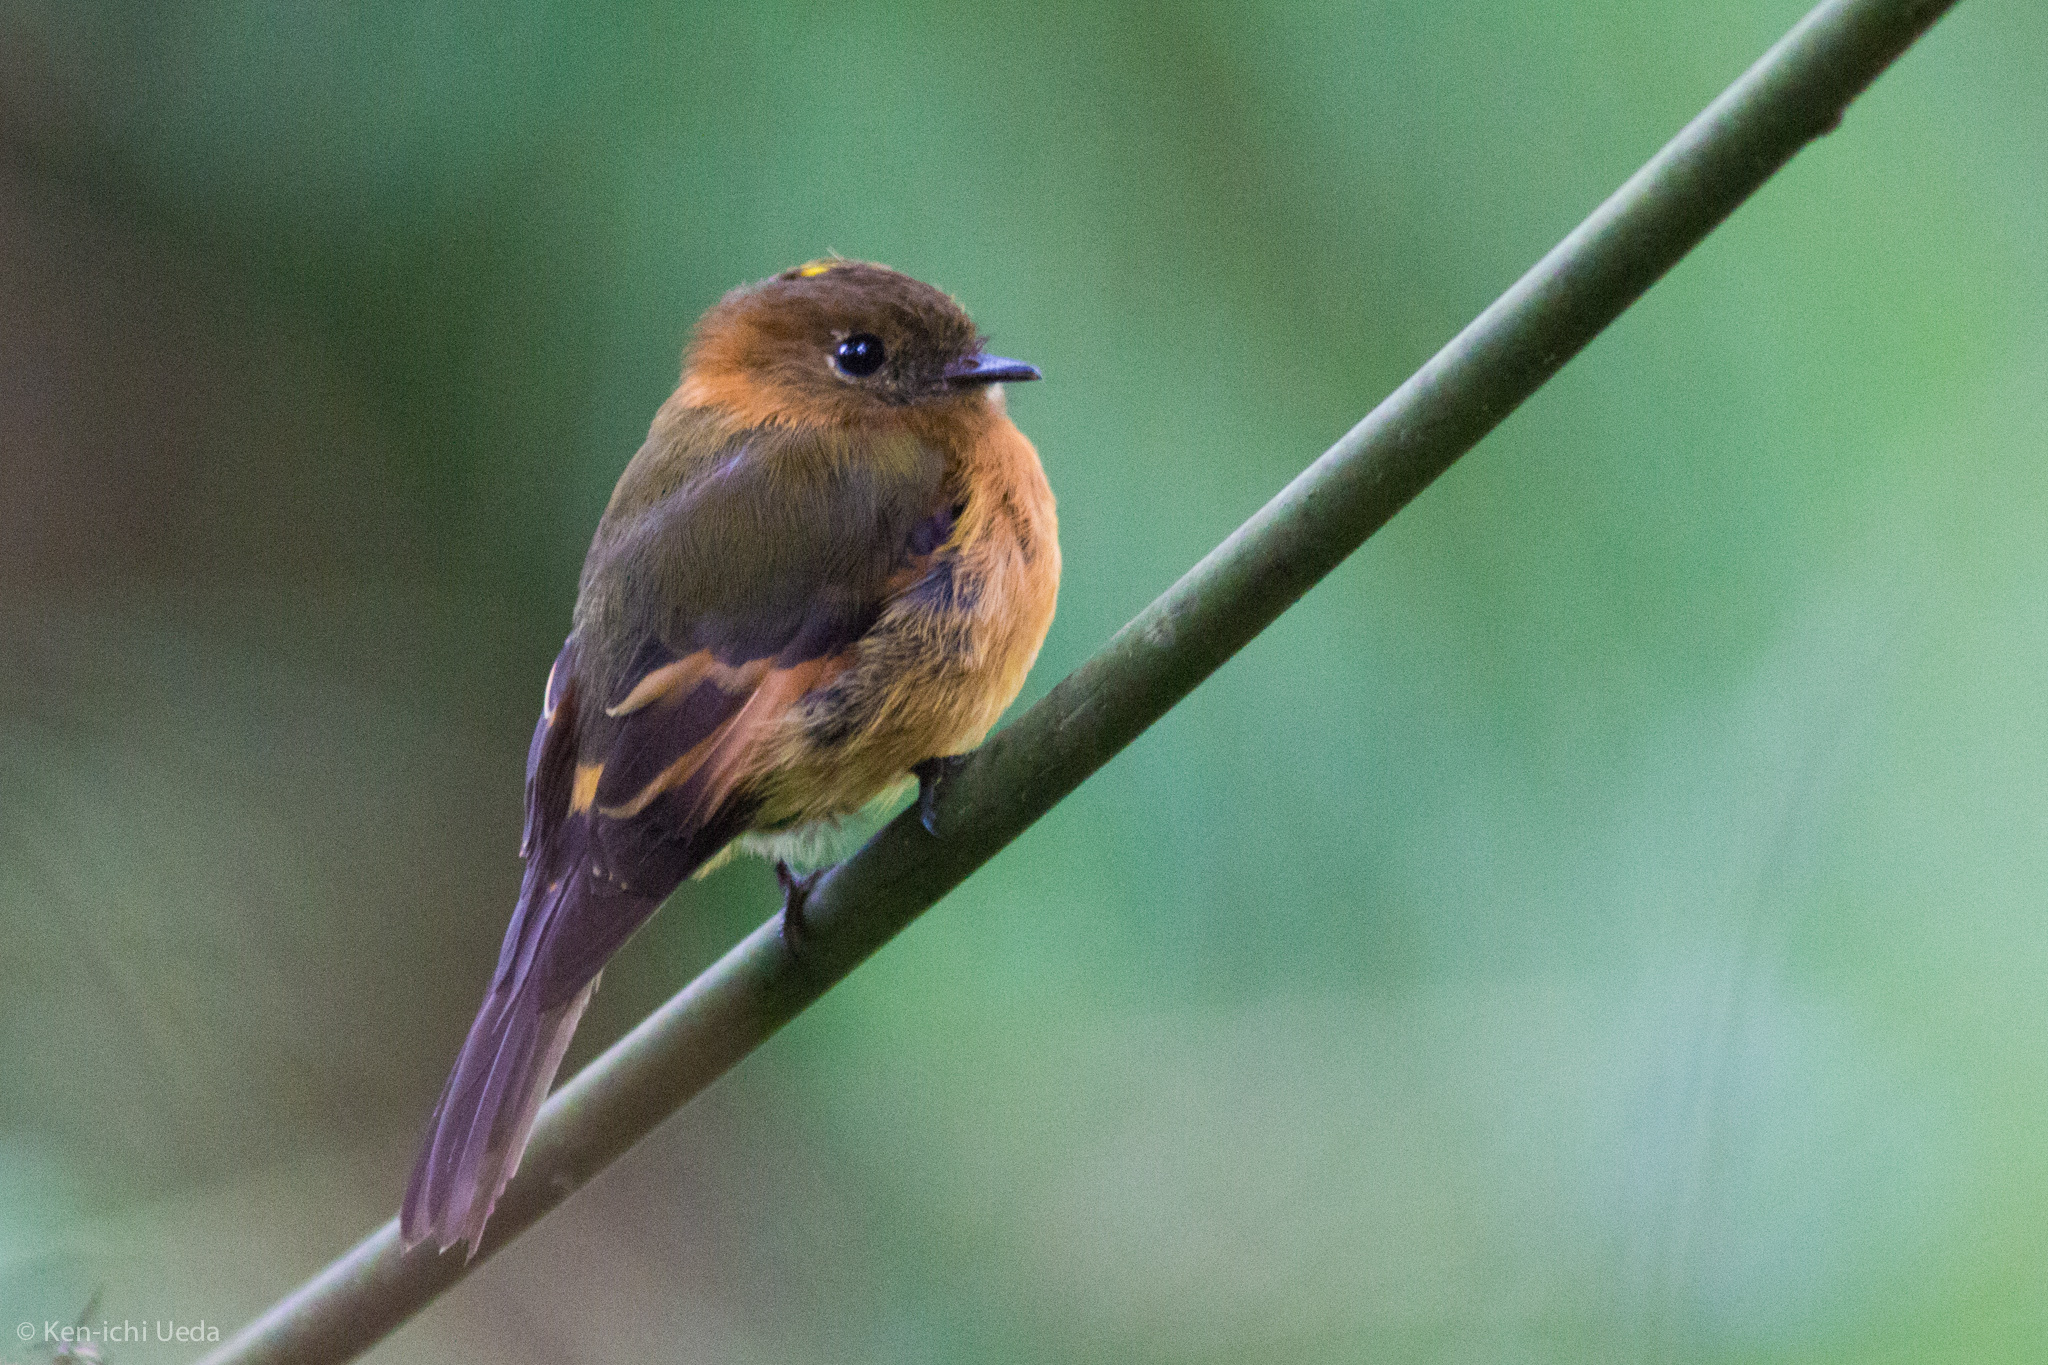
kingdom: Animalia
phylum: Chordata
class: Aves
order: Passeriformes
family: Tyrannidae
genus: Pyrrhomyias
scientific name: Pyrrhomyias cinnamomeus
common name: Cinnamon flycatcher
